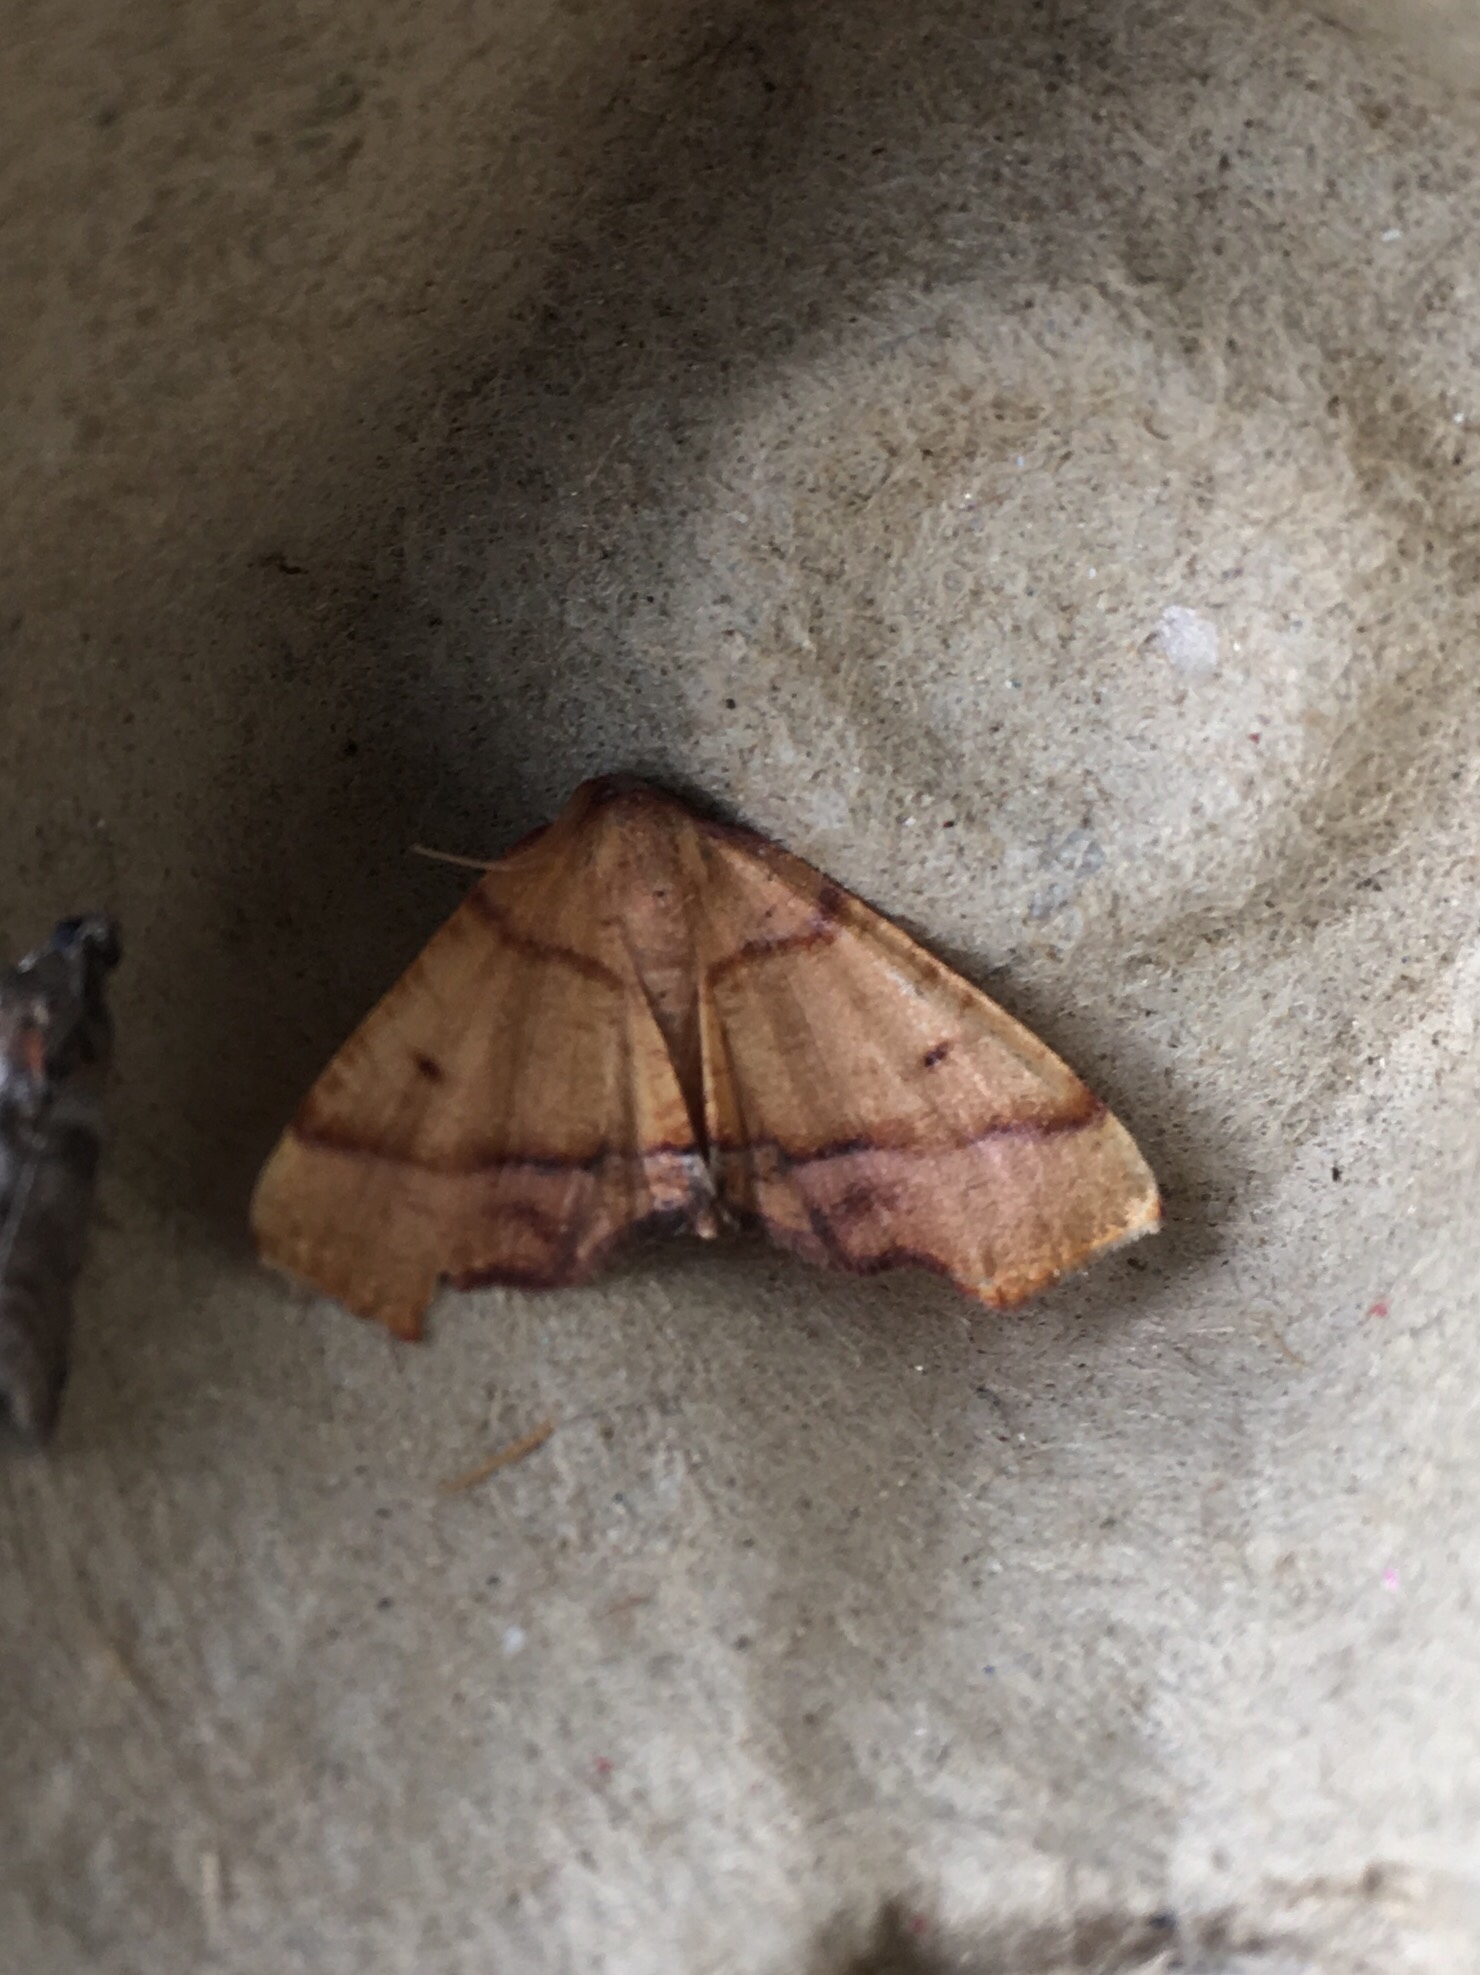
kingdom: Animalia
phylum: Arthropoda
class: Insecta
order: Lepidoptera
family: Geometridae
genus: Plagodis
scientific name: Plagodis phlogosaria
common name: Straight-lined plagodis
